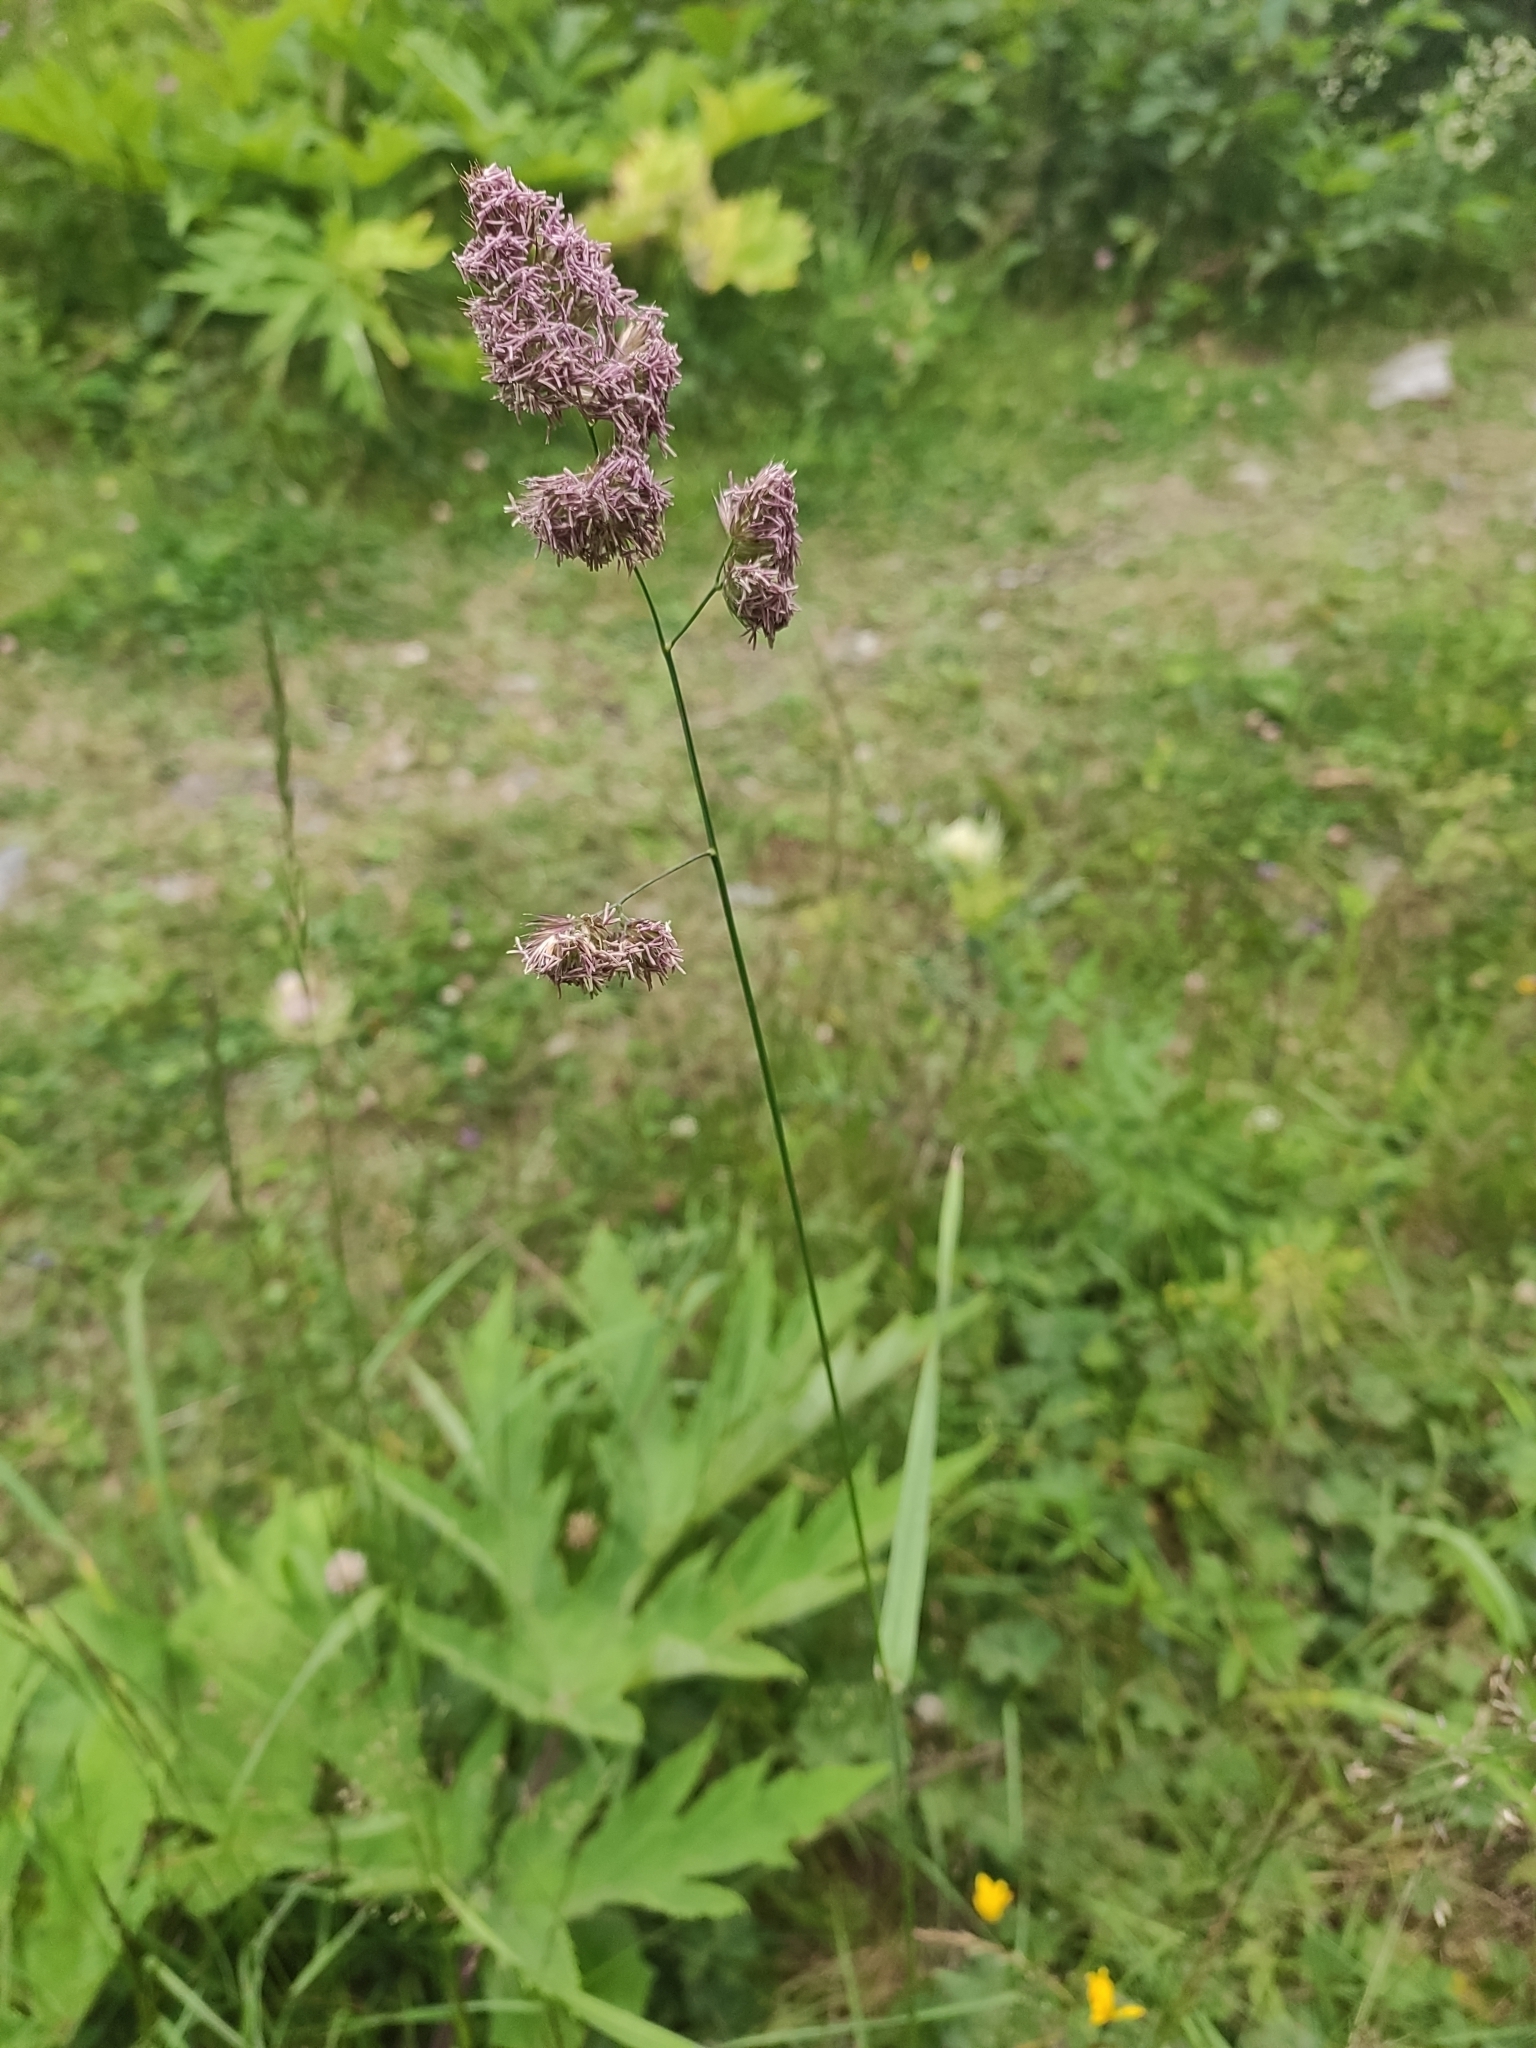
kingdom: Plantae
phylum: Tracheophyta
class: Liliopsida
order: Poales
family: Poaceae
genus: Dactylis
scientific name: Dactylis glomerata
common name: Orchardgrass
